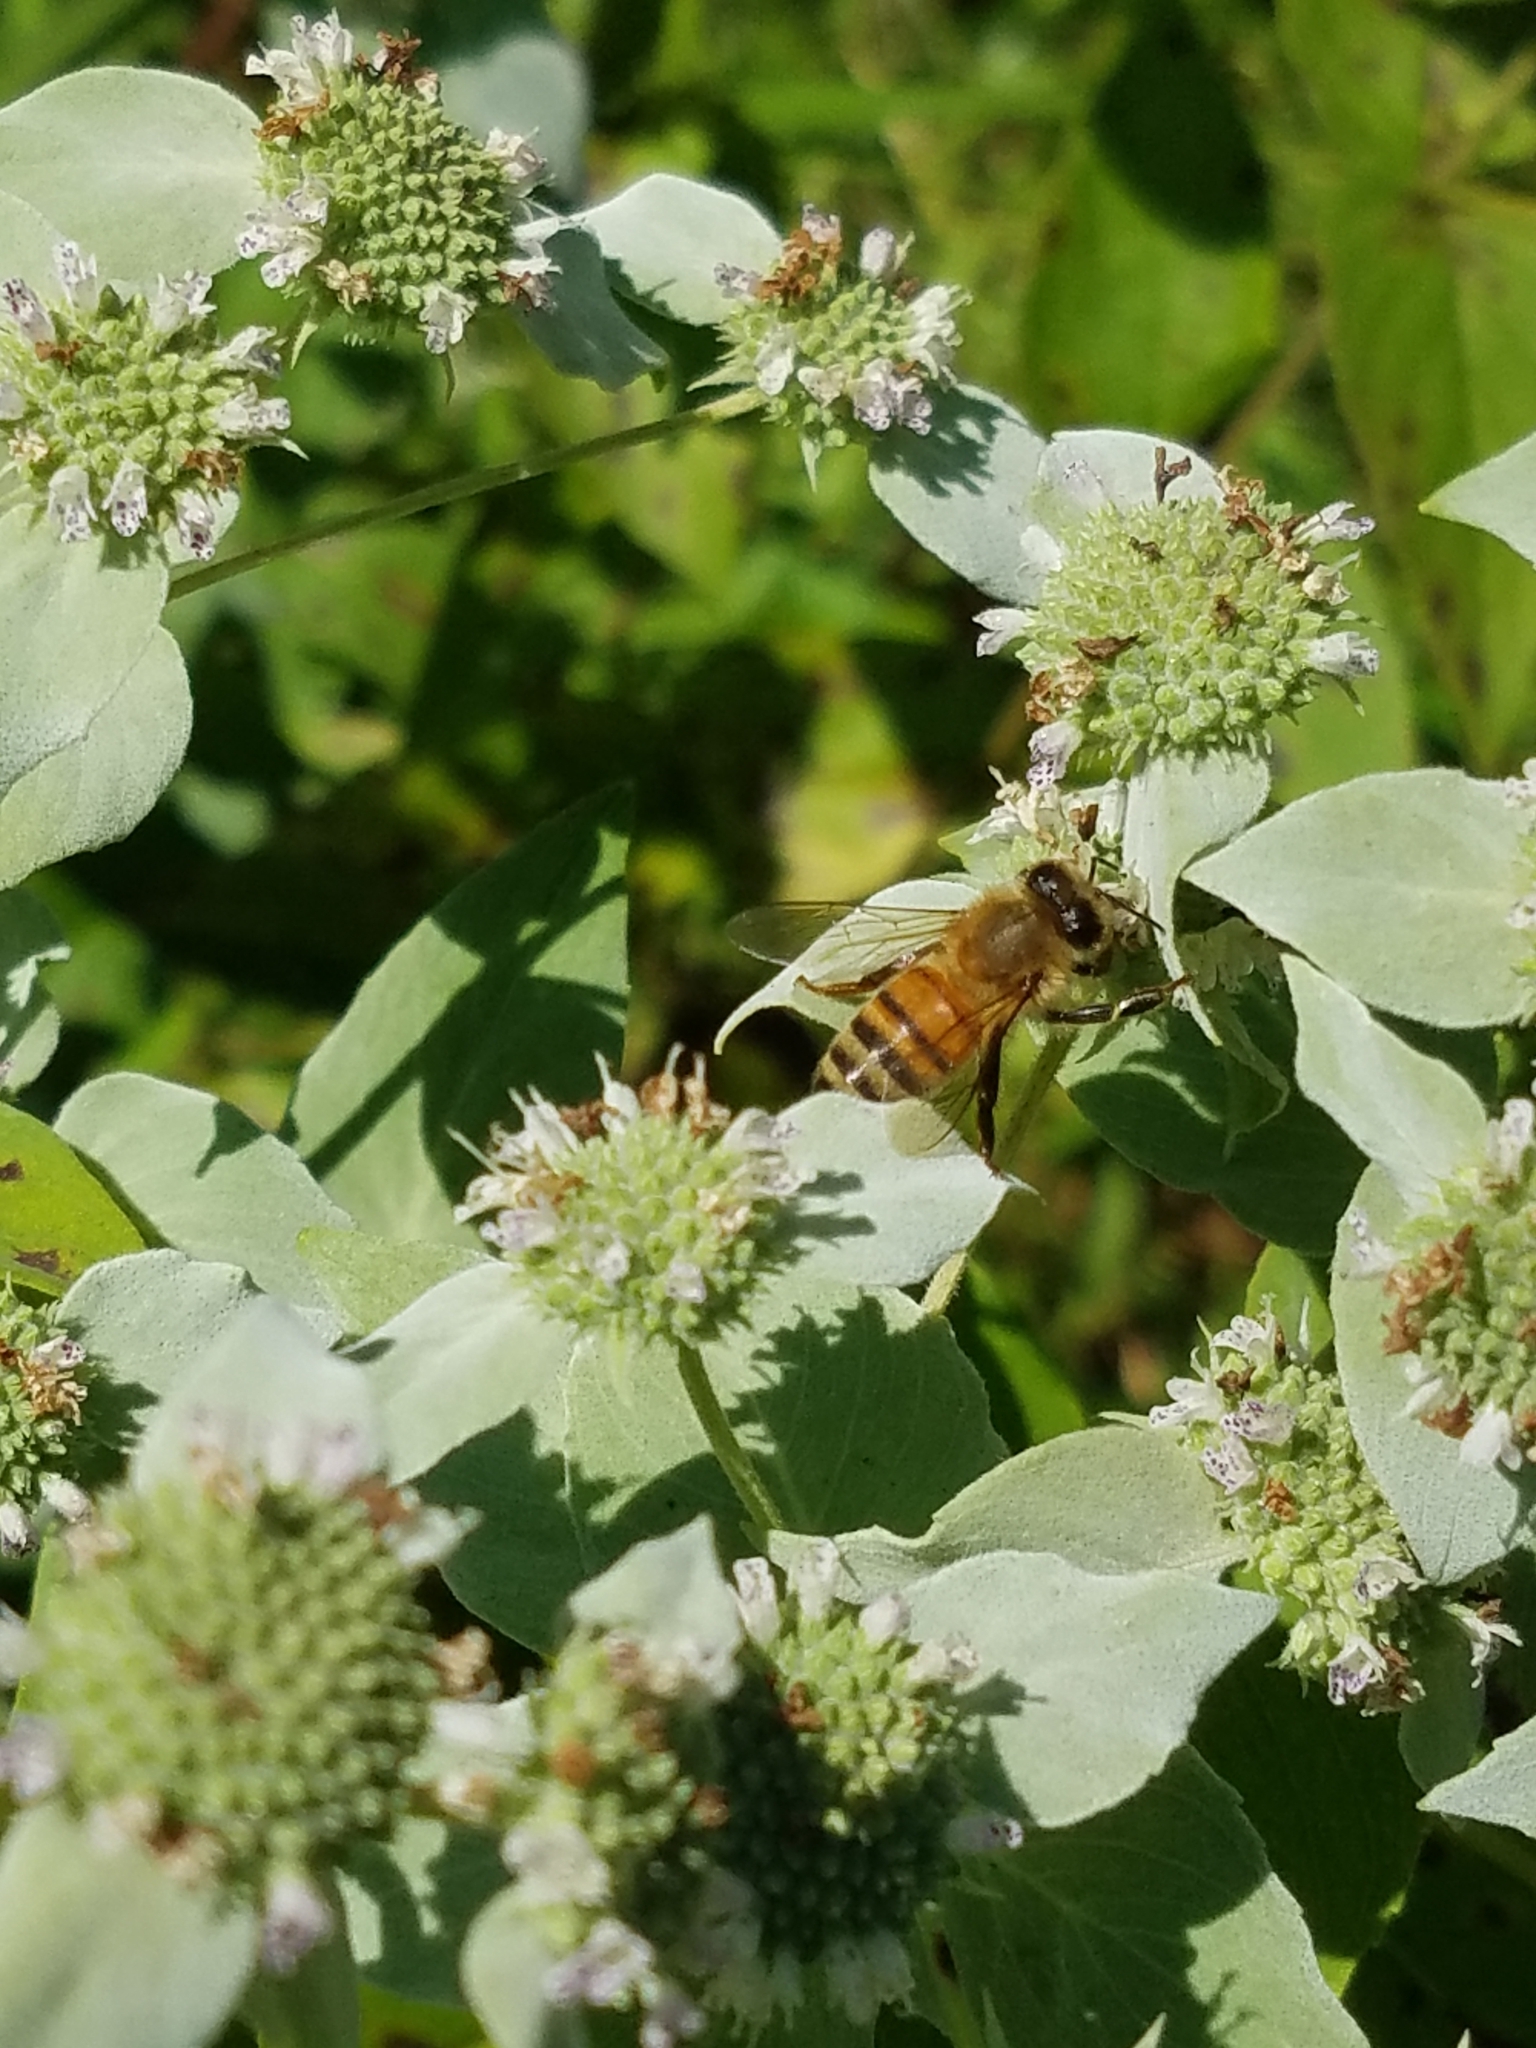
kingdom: Animalia
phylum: Arthropoda
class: Insecta
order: Hymenoptera
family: Apidae
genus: Apis
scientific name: Apis mellifera
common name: Honey bee
